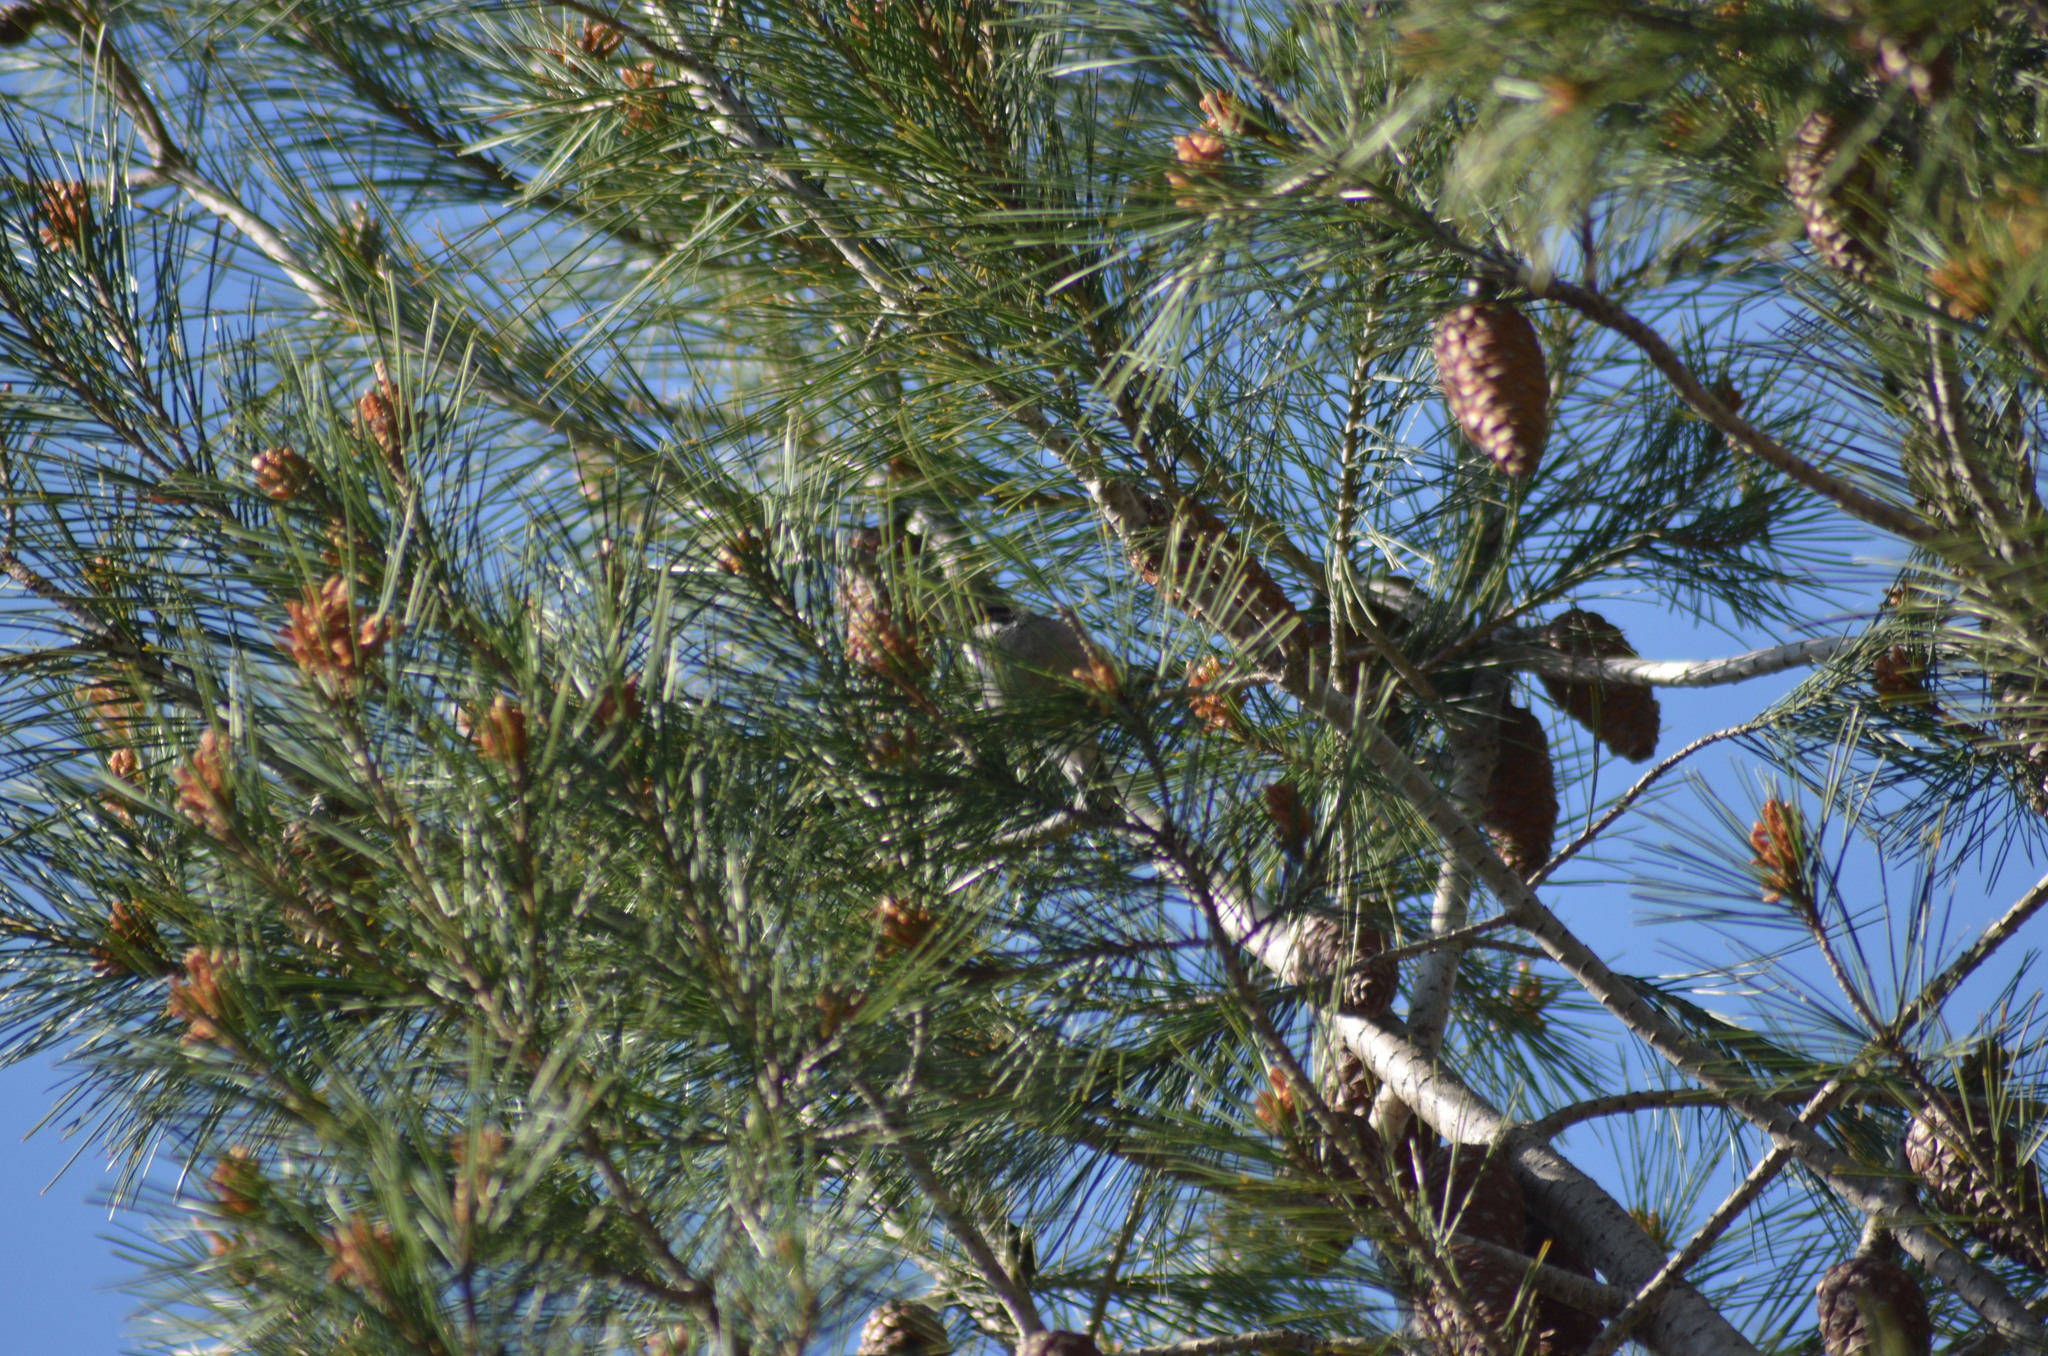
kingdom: Animalia
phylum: Chordata
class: Aves
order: Passeriformes
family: Sylviidae
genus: Curruca
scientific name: Curruca melanocephala
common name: Sardinian warbler
